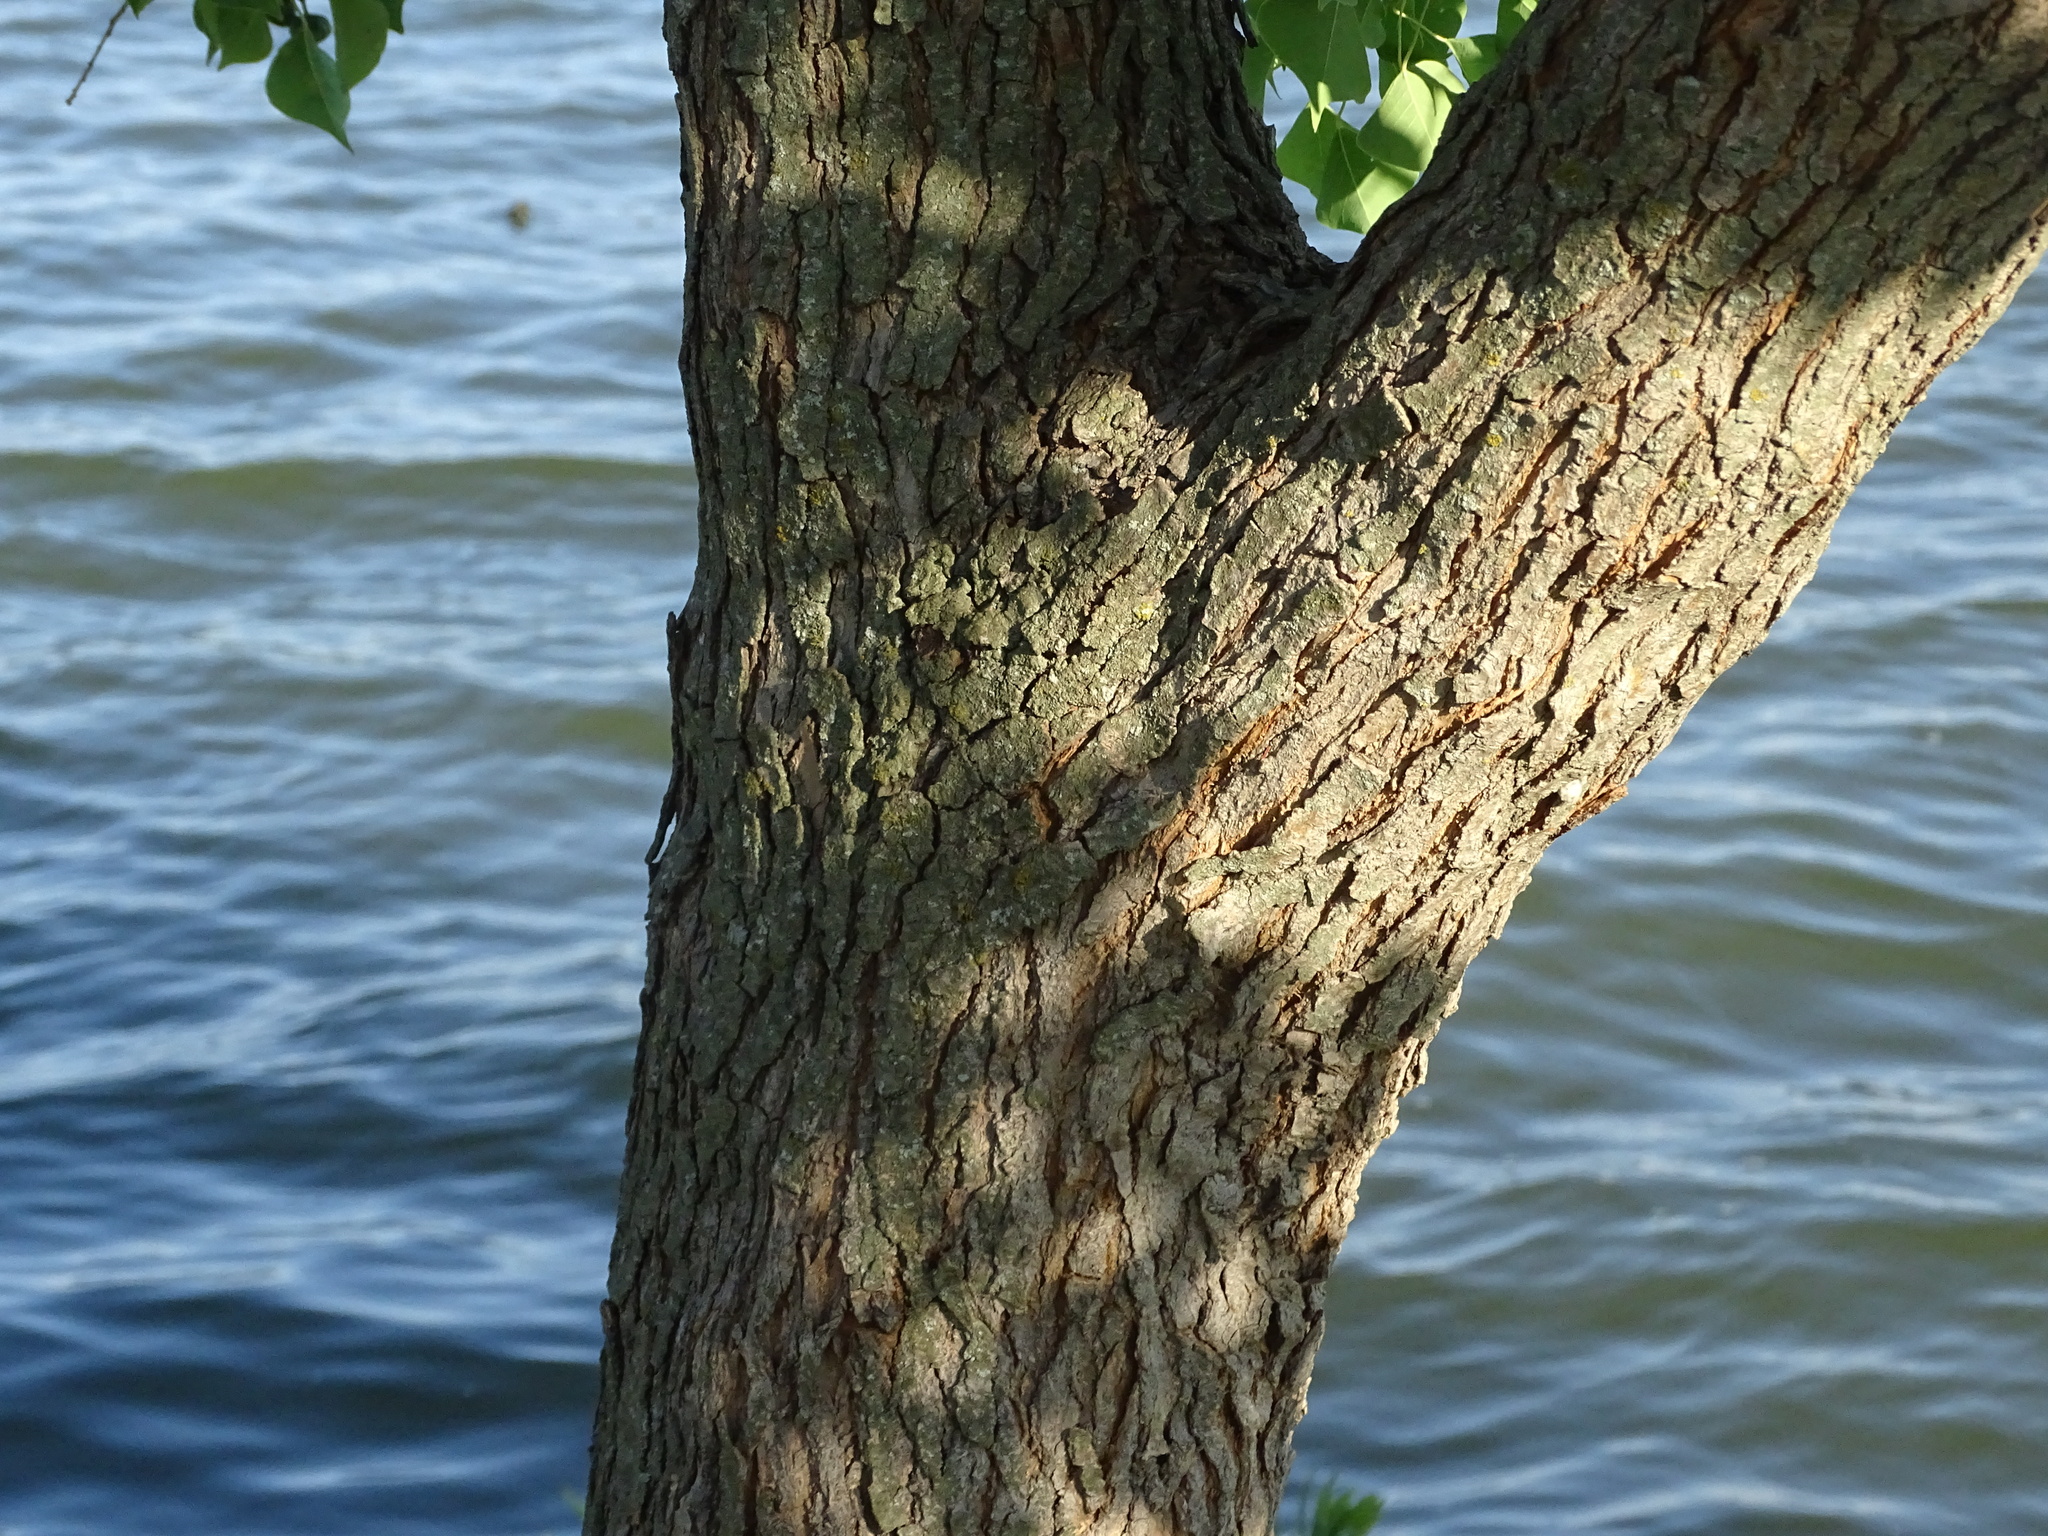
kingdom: Plantae
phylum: Tracheophyta
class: Magnoliopsida
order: Malpighiales
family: Euphorbiaceae
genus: Triadica
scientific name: Triadica sebifera
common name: Chinese tallow
